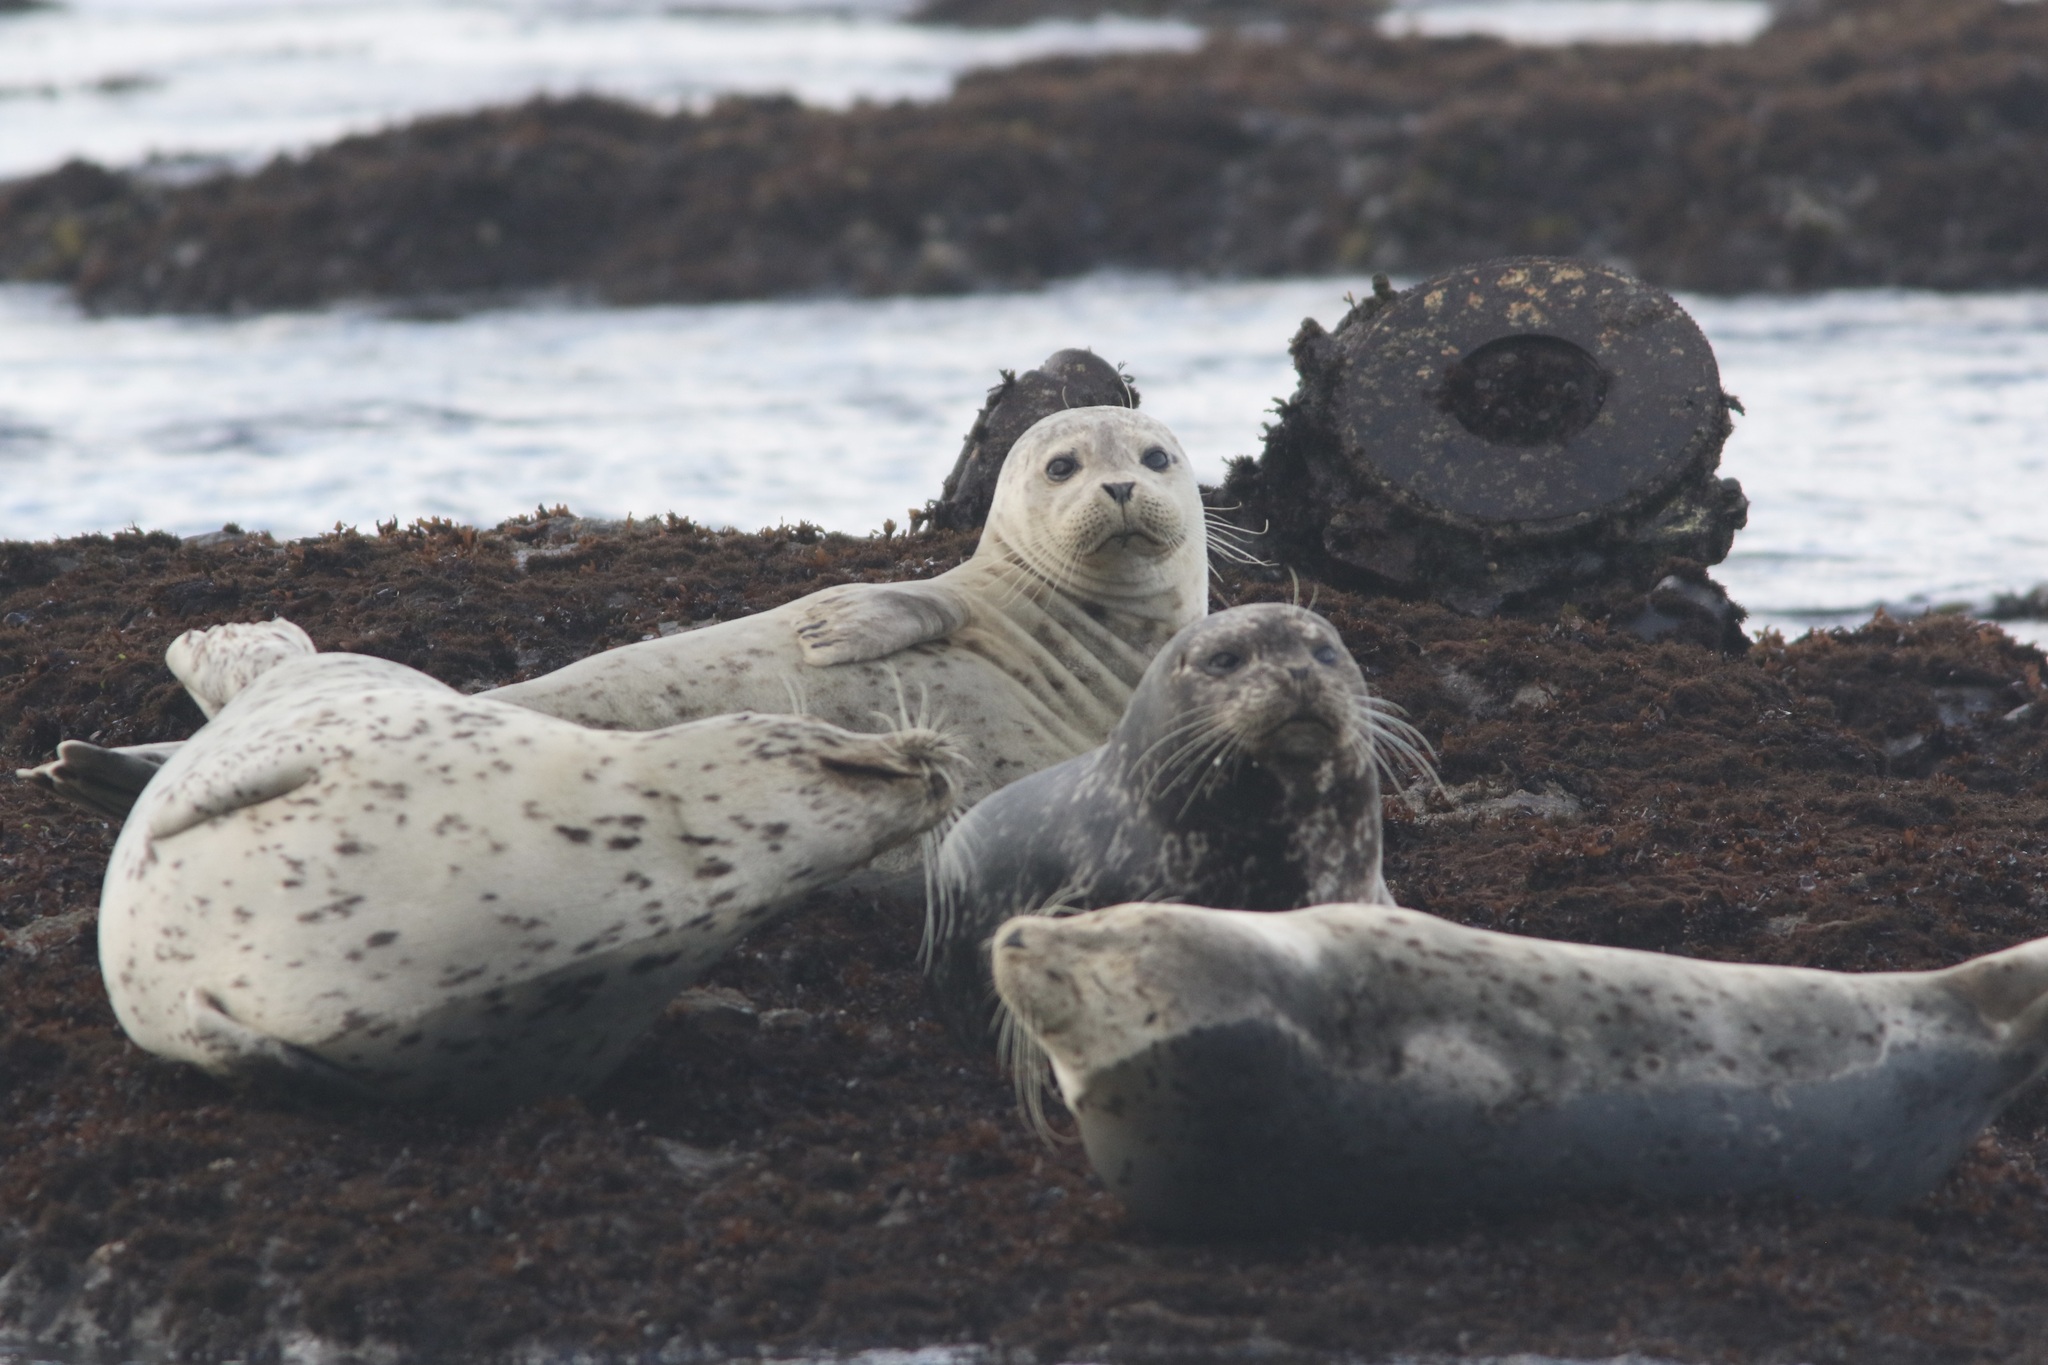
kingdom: Animalia
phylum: Chordata
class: Mammalia
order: Carnivora
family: Phocidae
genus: Phoca
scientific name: Phoca vitulina
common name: Harbor seal
